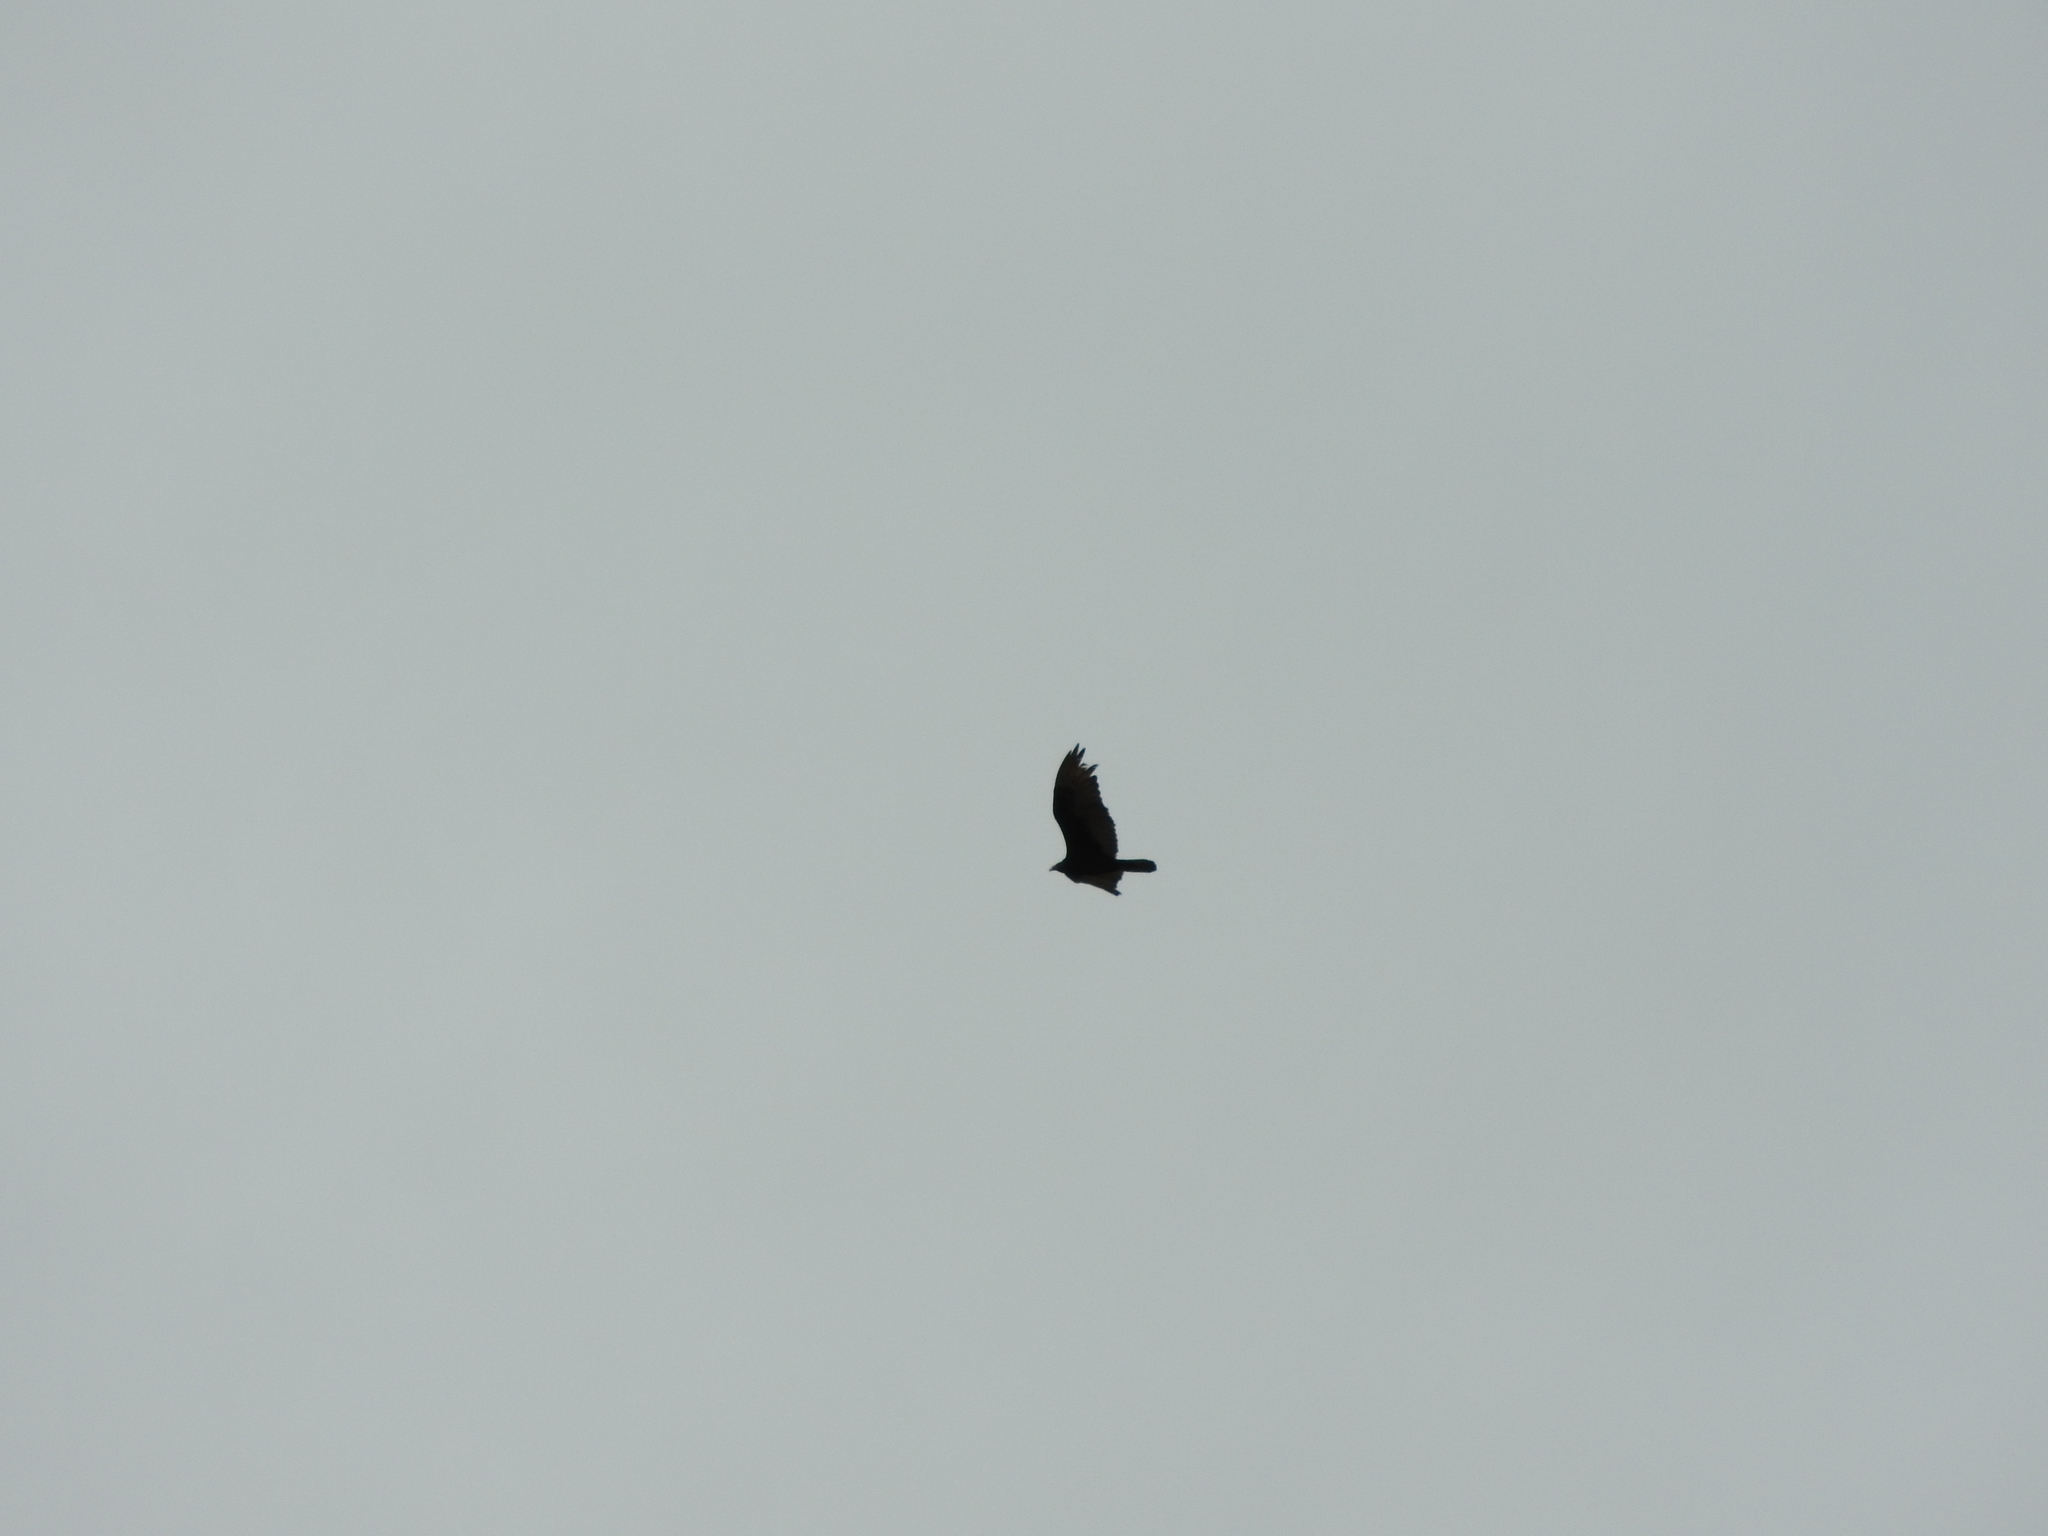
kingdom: Animalia
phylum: Chordata
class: Aves
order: Accipitriformes
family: Cathartidae
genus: Cathartes
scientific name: Cathartes aura
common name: Turkey vulture
